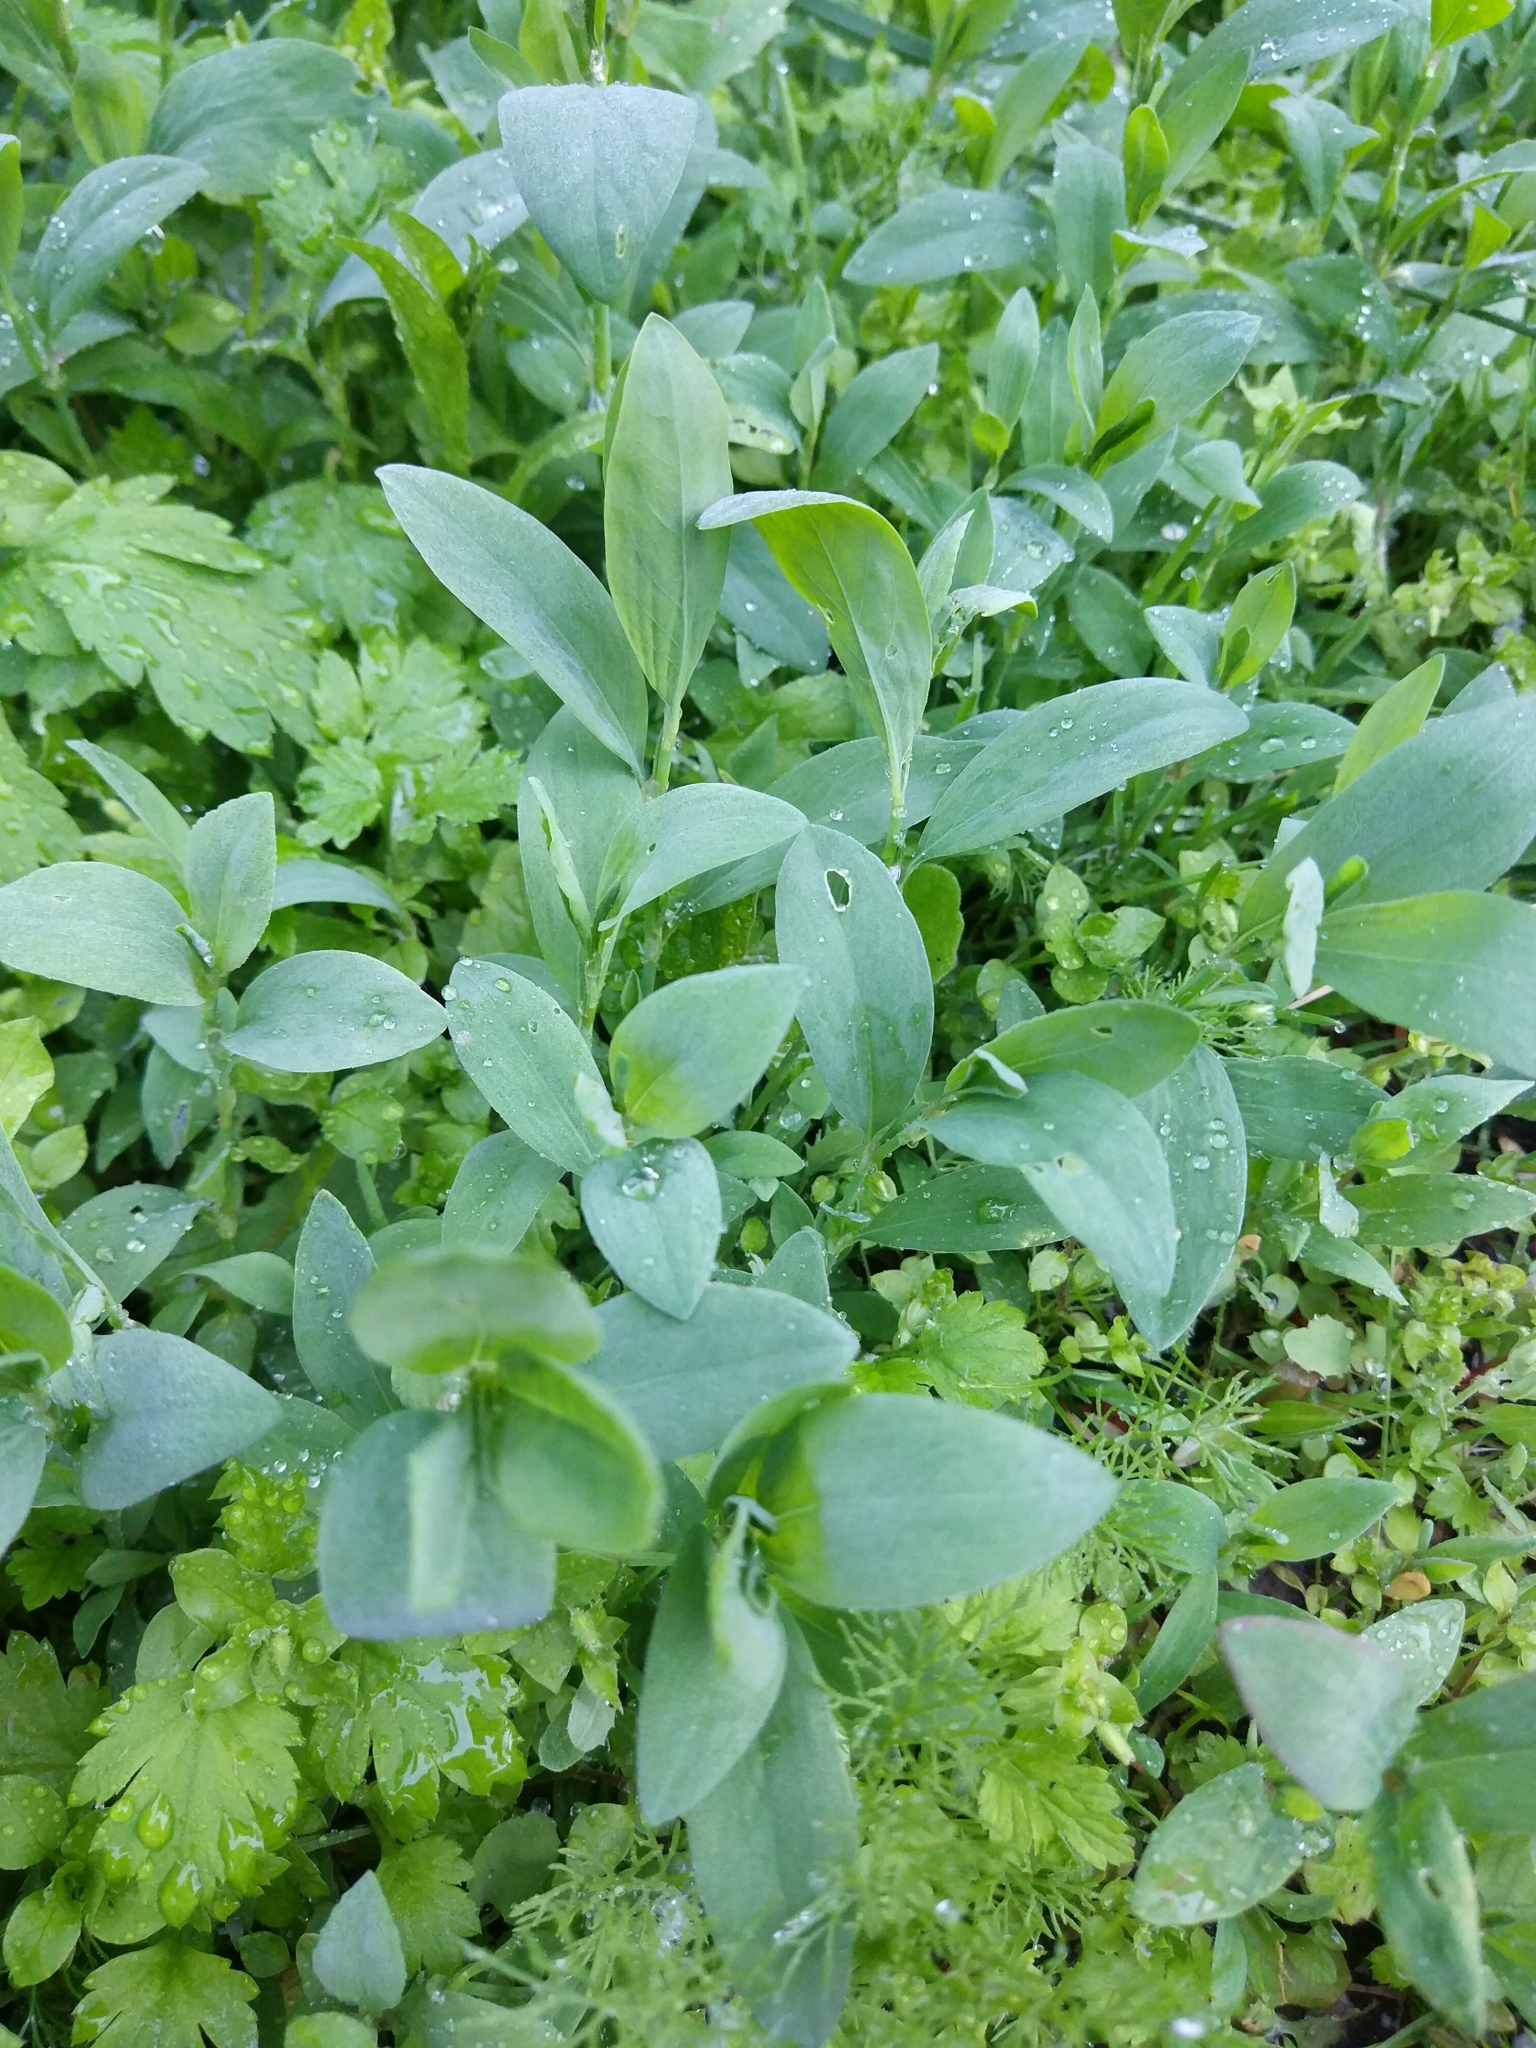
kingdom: Plantae
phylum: Tracheophyta
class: Magnoliopsida
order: Caryophyllales
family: Polygonaceae
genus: Polygonum
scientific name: Polygonum
